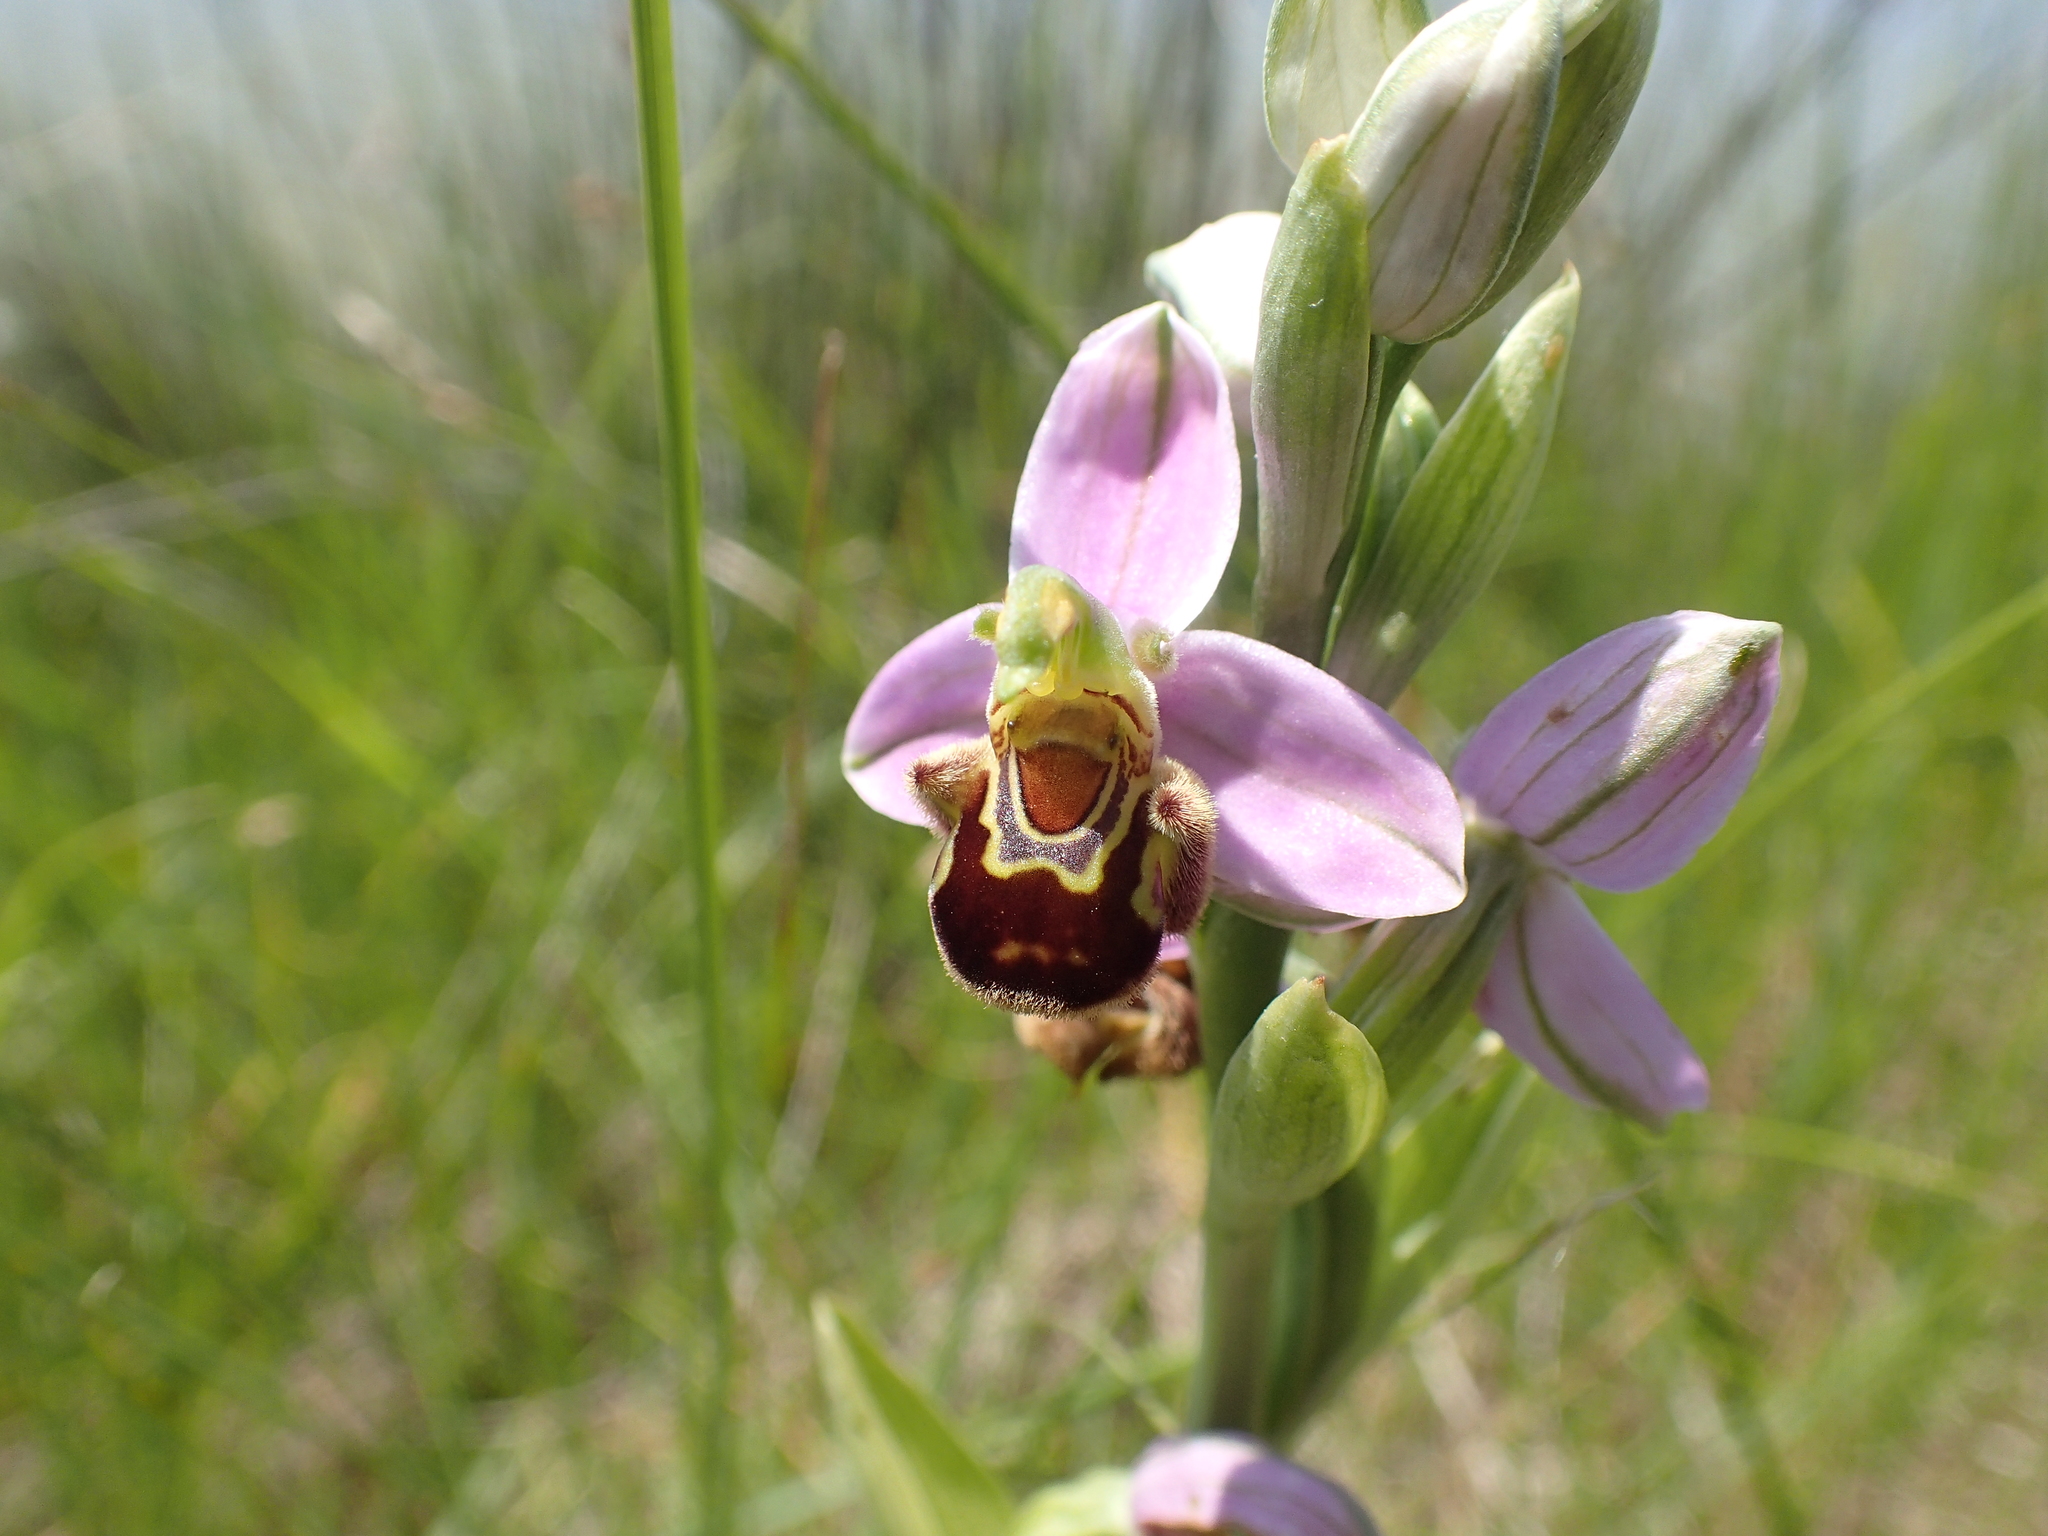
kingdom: Plantae
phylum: Tracheophyta
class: Liliopsida
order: Asparagales
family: Orchidaceae
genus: Ophrys
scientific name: Ophrys apifera
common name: Bee orchid
